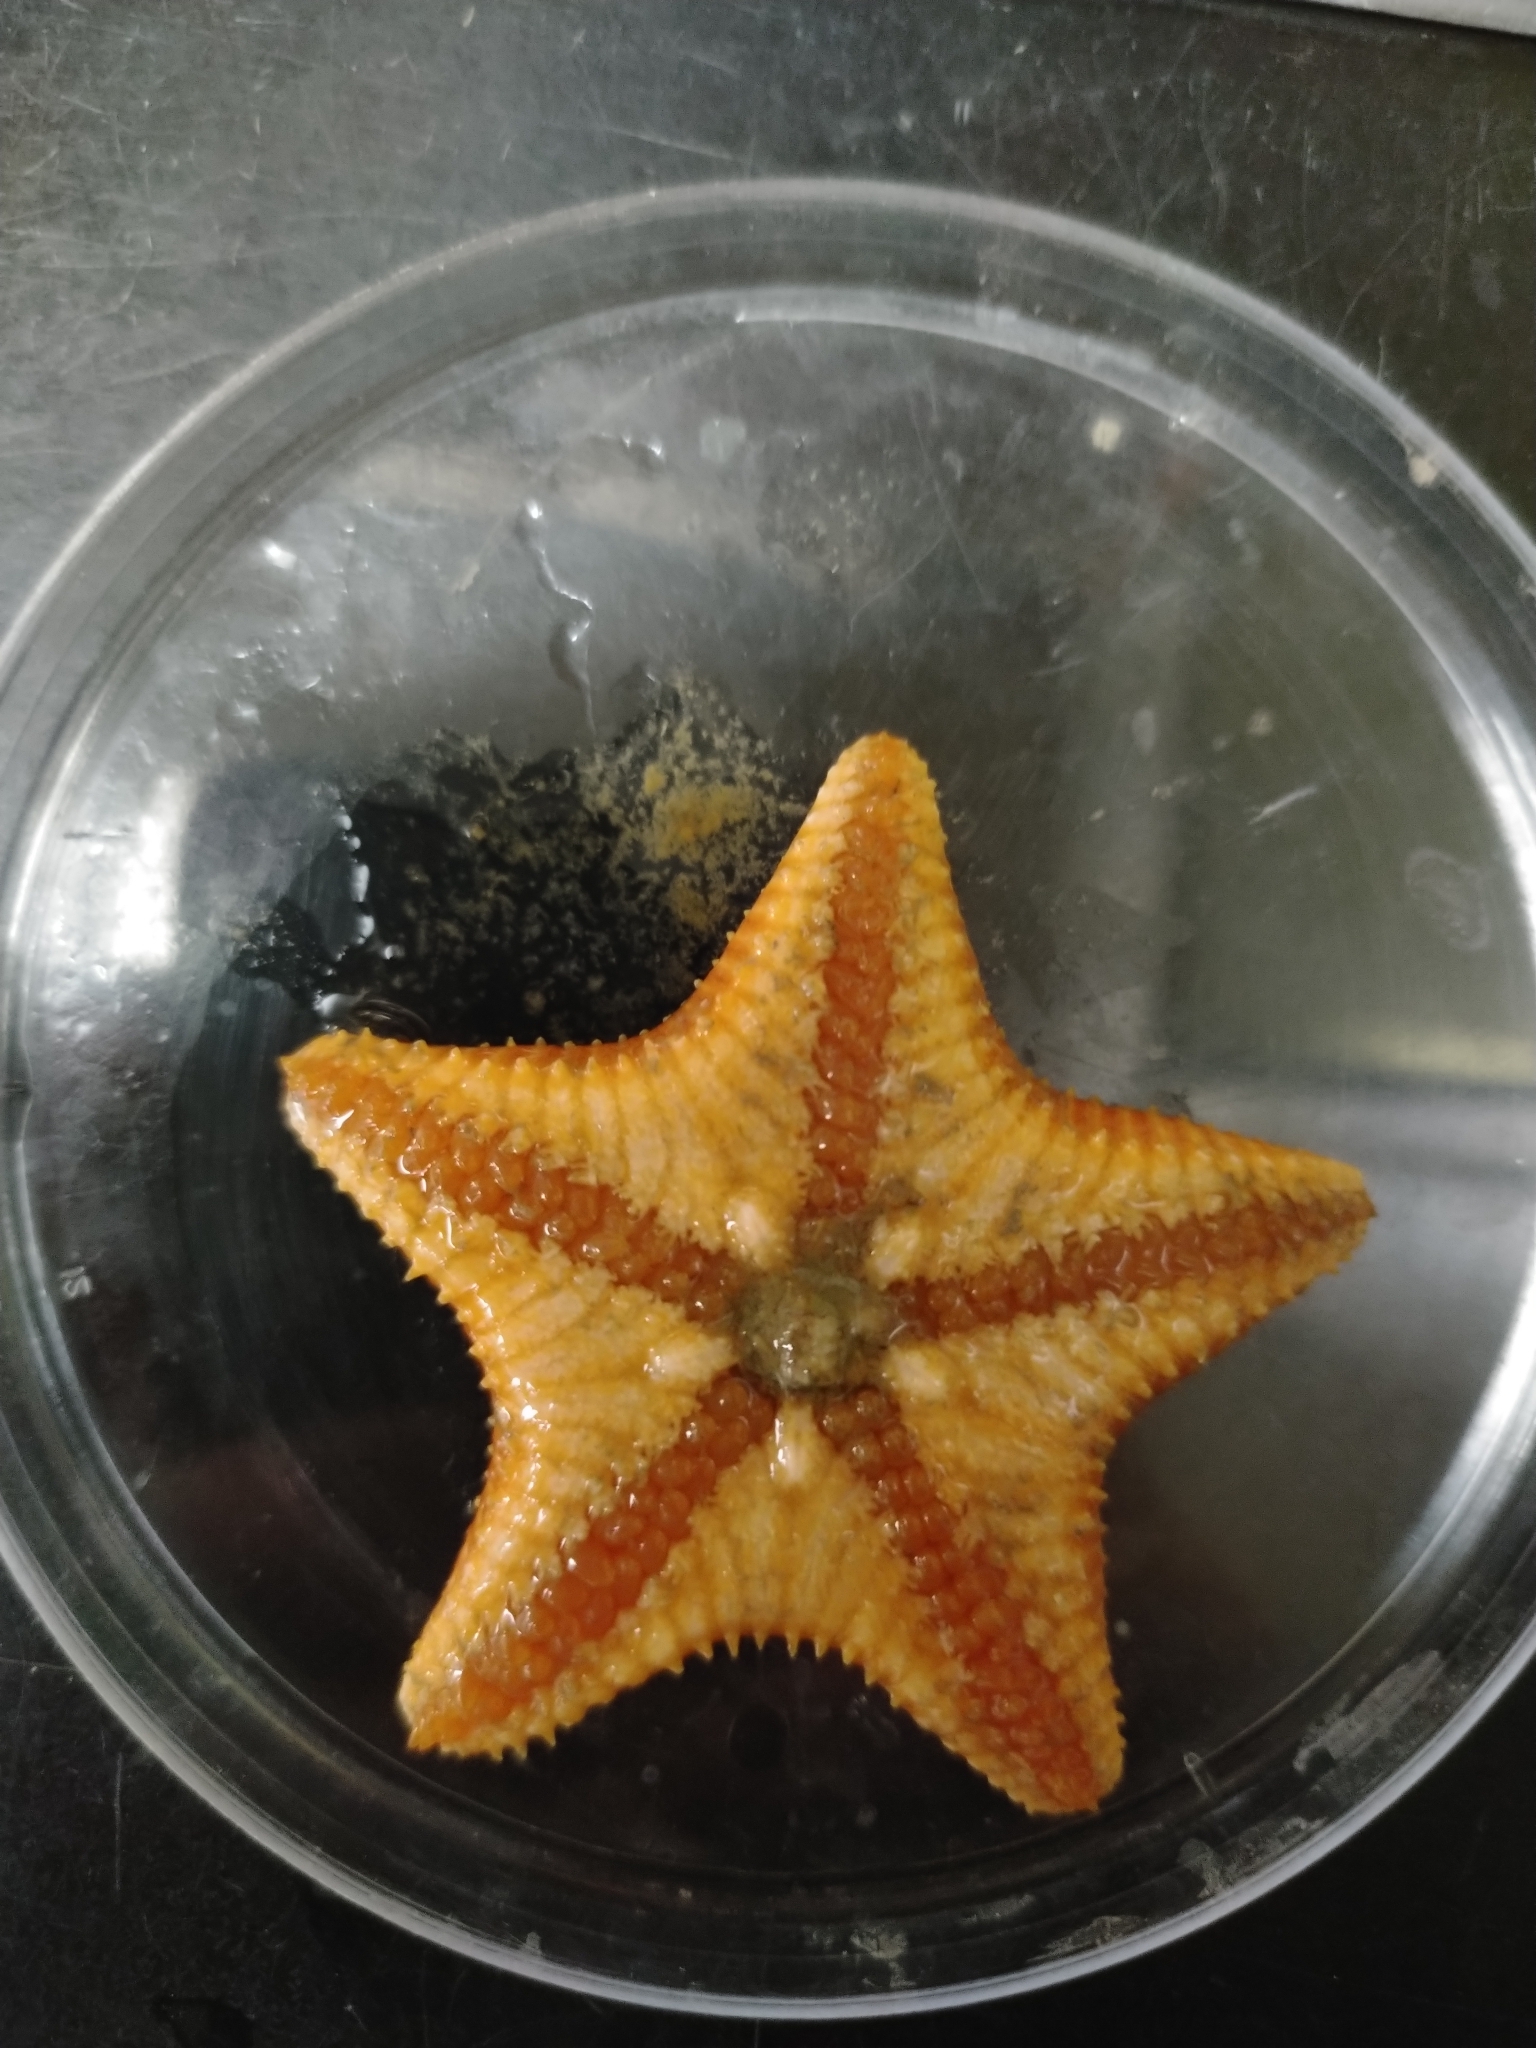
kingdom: Animalia
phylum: Echinodermata
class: Asteroidea
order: Paxillosida
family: Ctenodiscidae
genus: Ctenodiscus
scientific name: Ctenodiscus crispatus
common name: Common mud star
